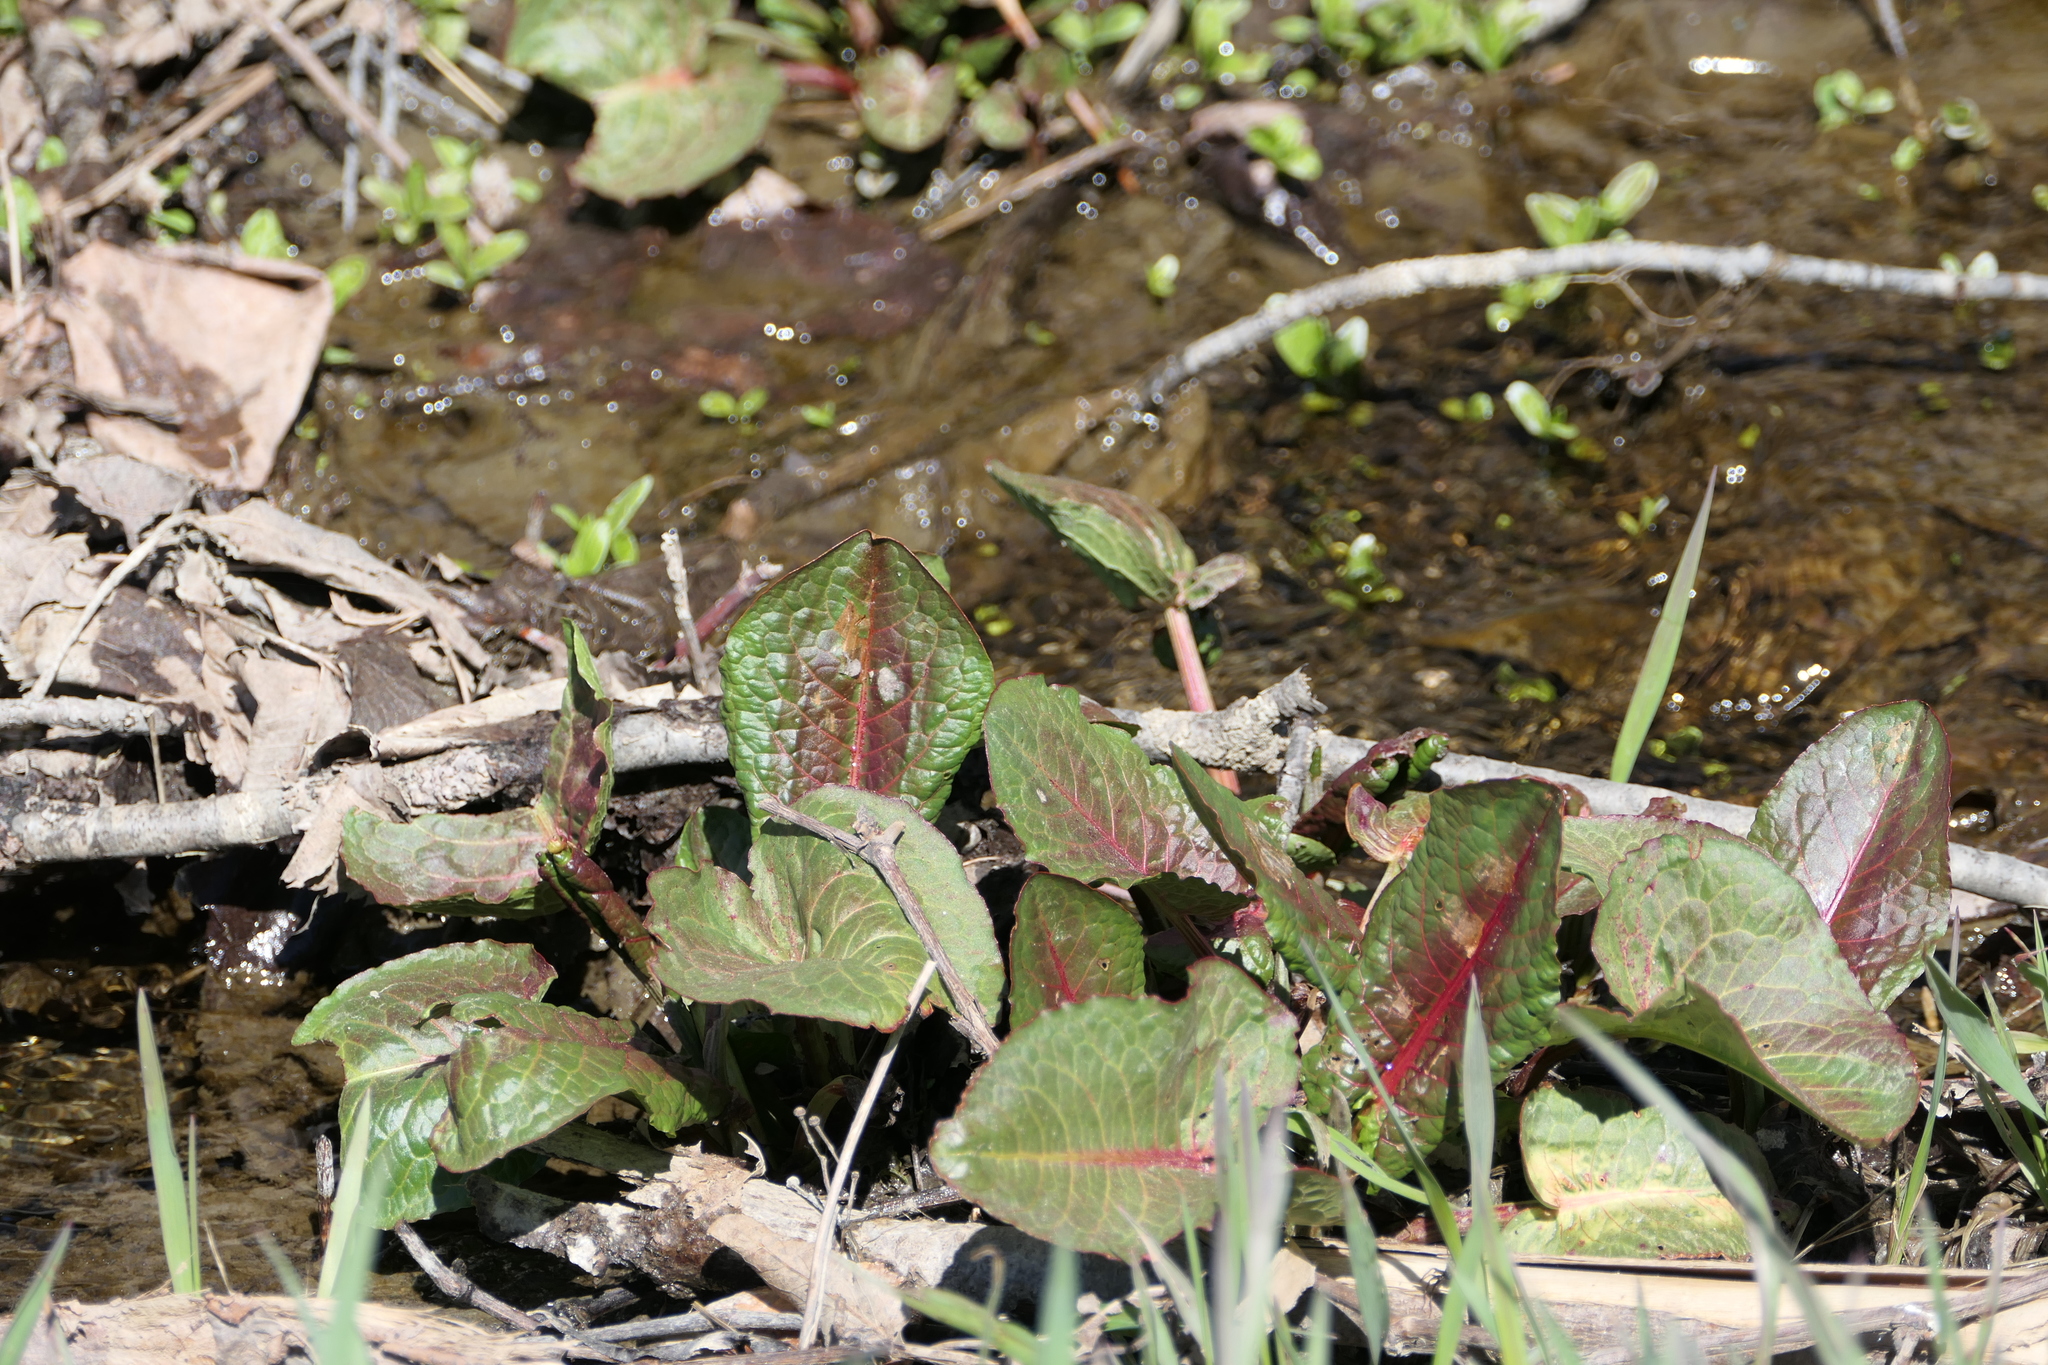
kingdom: Plantae
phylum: Tracheophyta
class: Magnoliopsida
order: Caryophyllales
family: Polygonaceae
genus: Rumex
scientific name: Rumex obtusifolius
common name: Bitter dock
